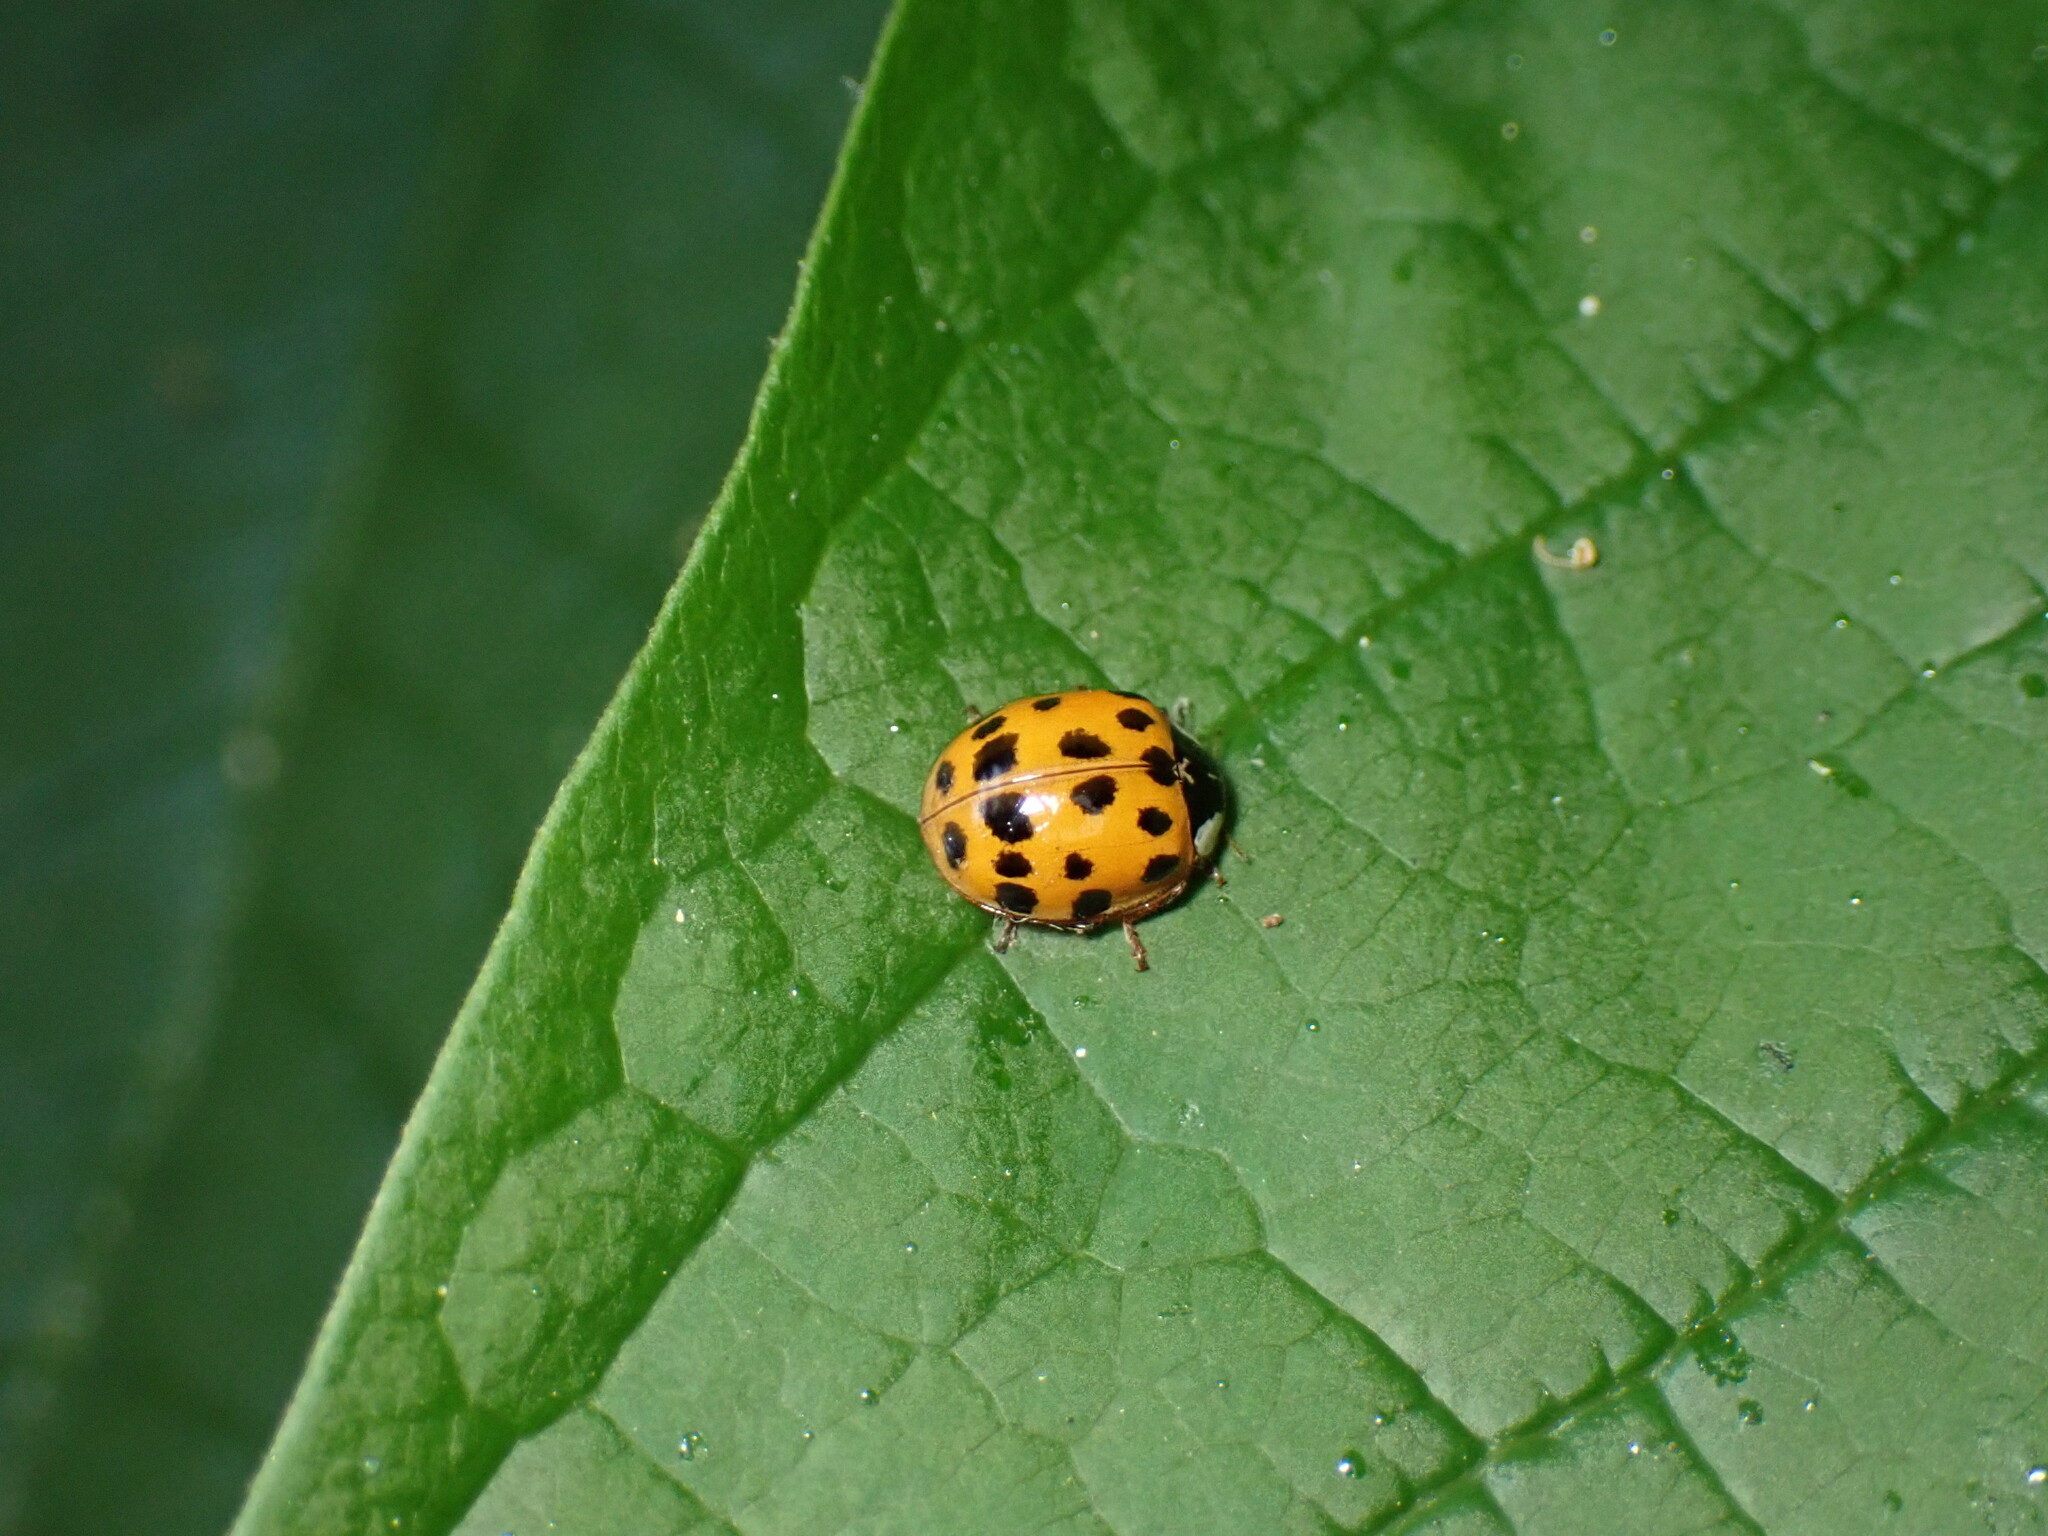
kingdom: Animalia
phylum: Arthropoda
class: Insecta
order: Coleoptera
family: Coccinellidae
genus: Harmonia
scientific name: Harmonia axyridis
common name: Harlequin ladybird
